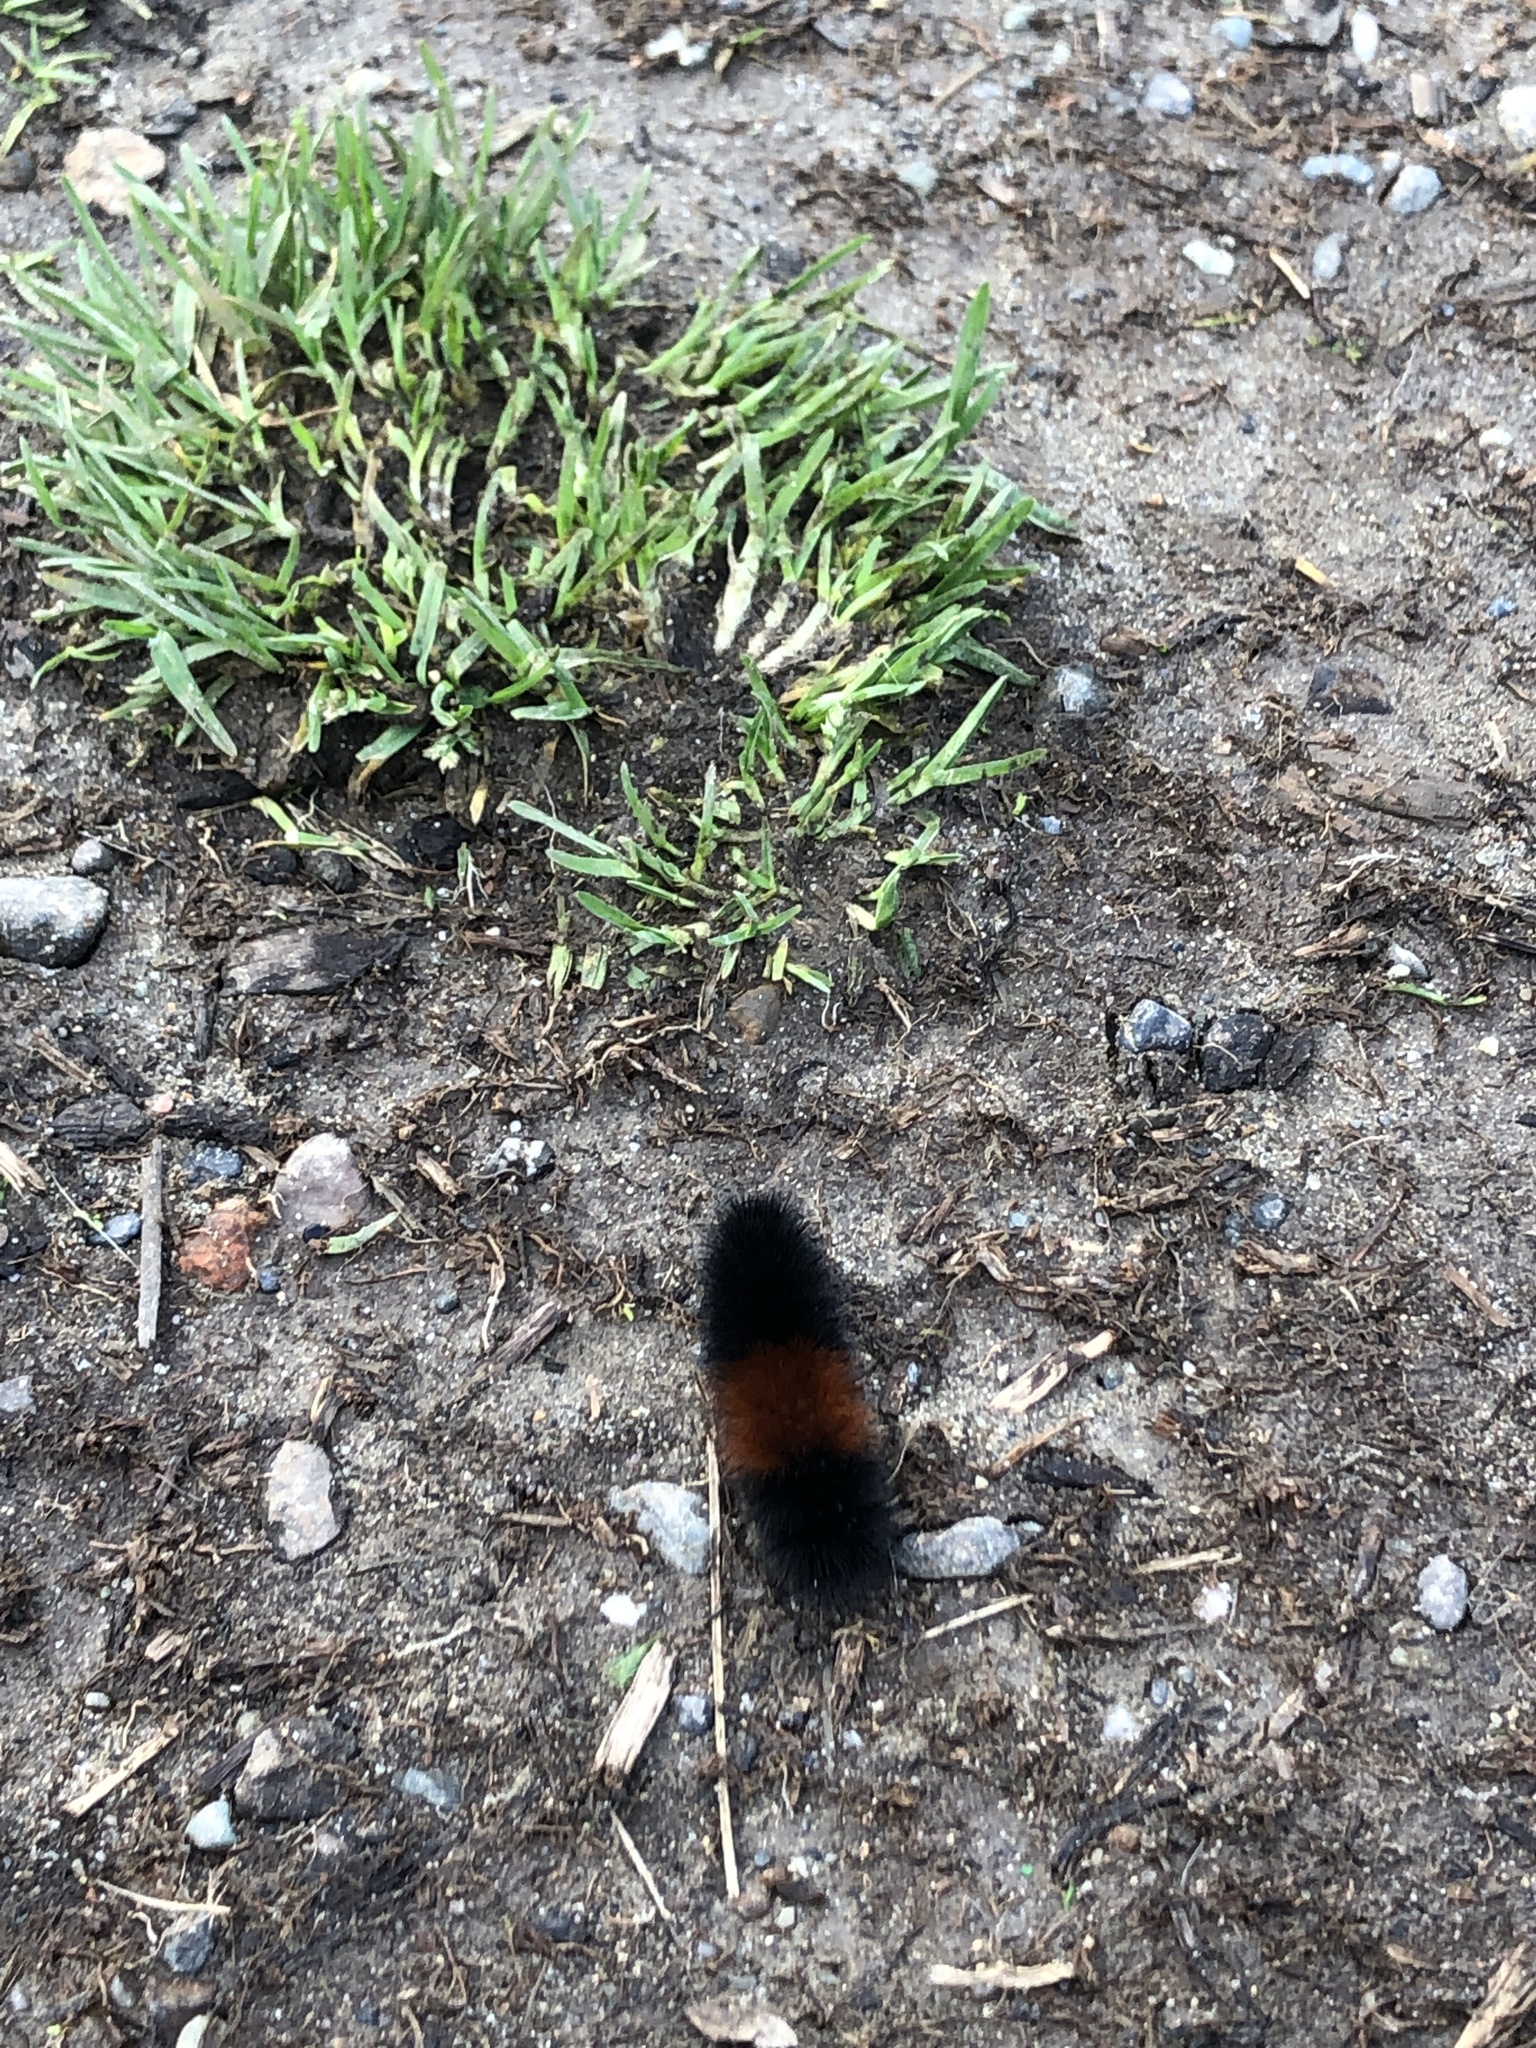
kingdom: Animalia
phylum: Arthropoda
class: Insecta
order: Lepidoptera
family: Erebidae
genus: Pyrrharctia
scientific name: Pyrrharctia isabella
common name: Isabella tiger moth
